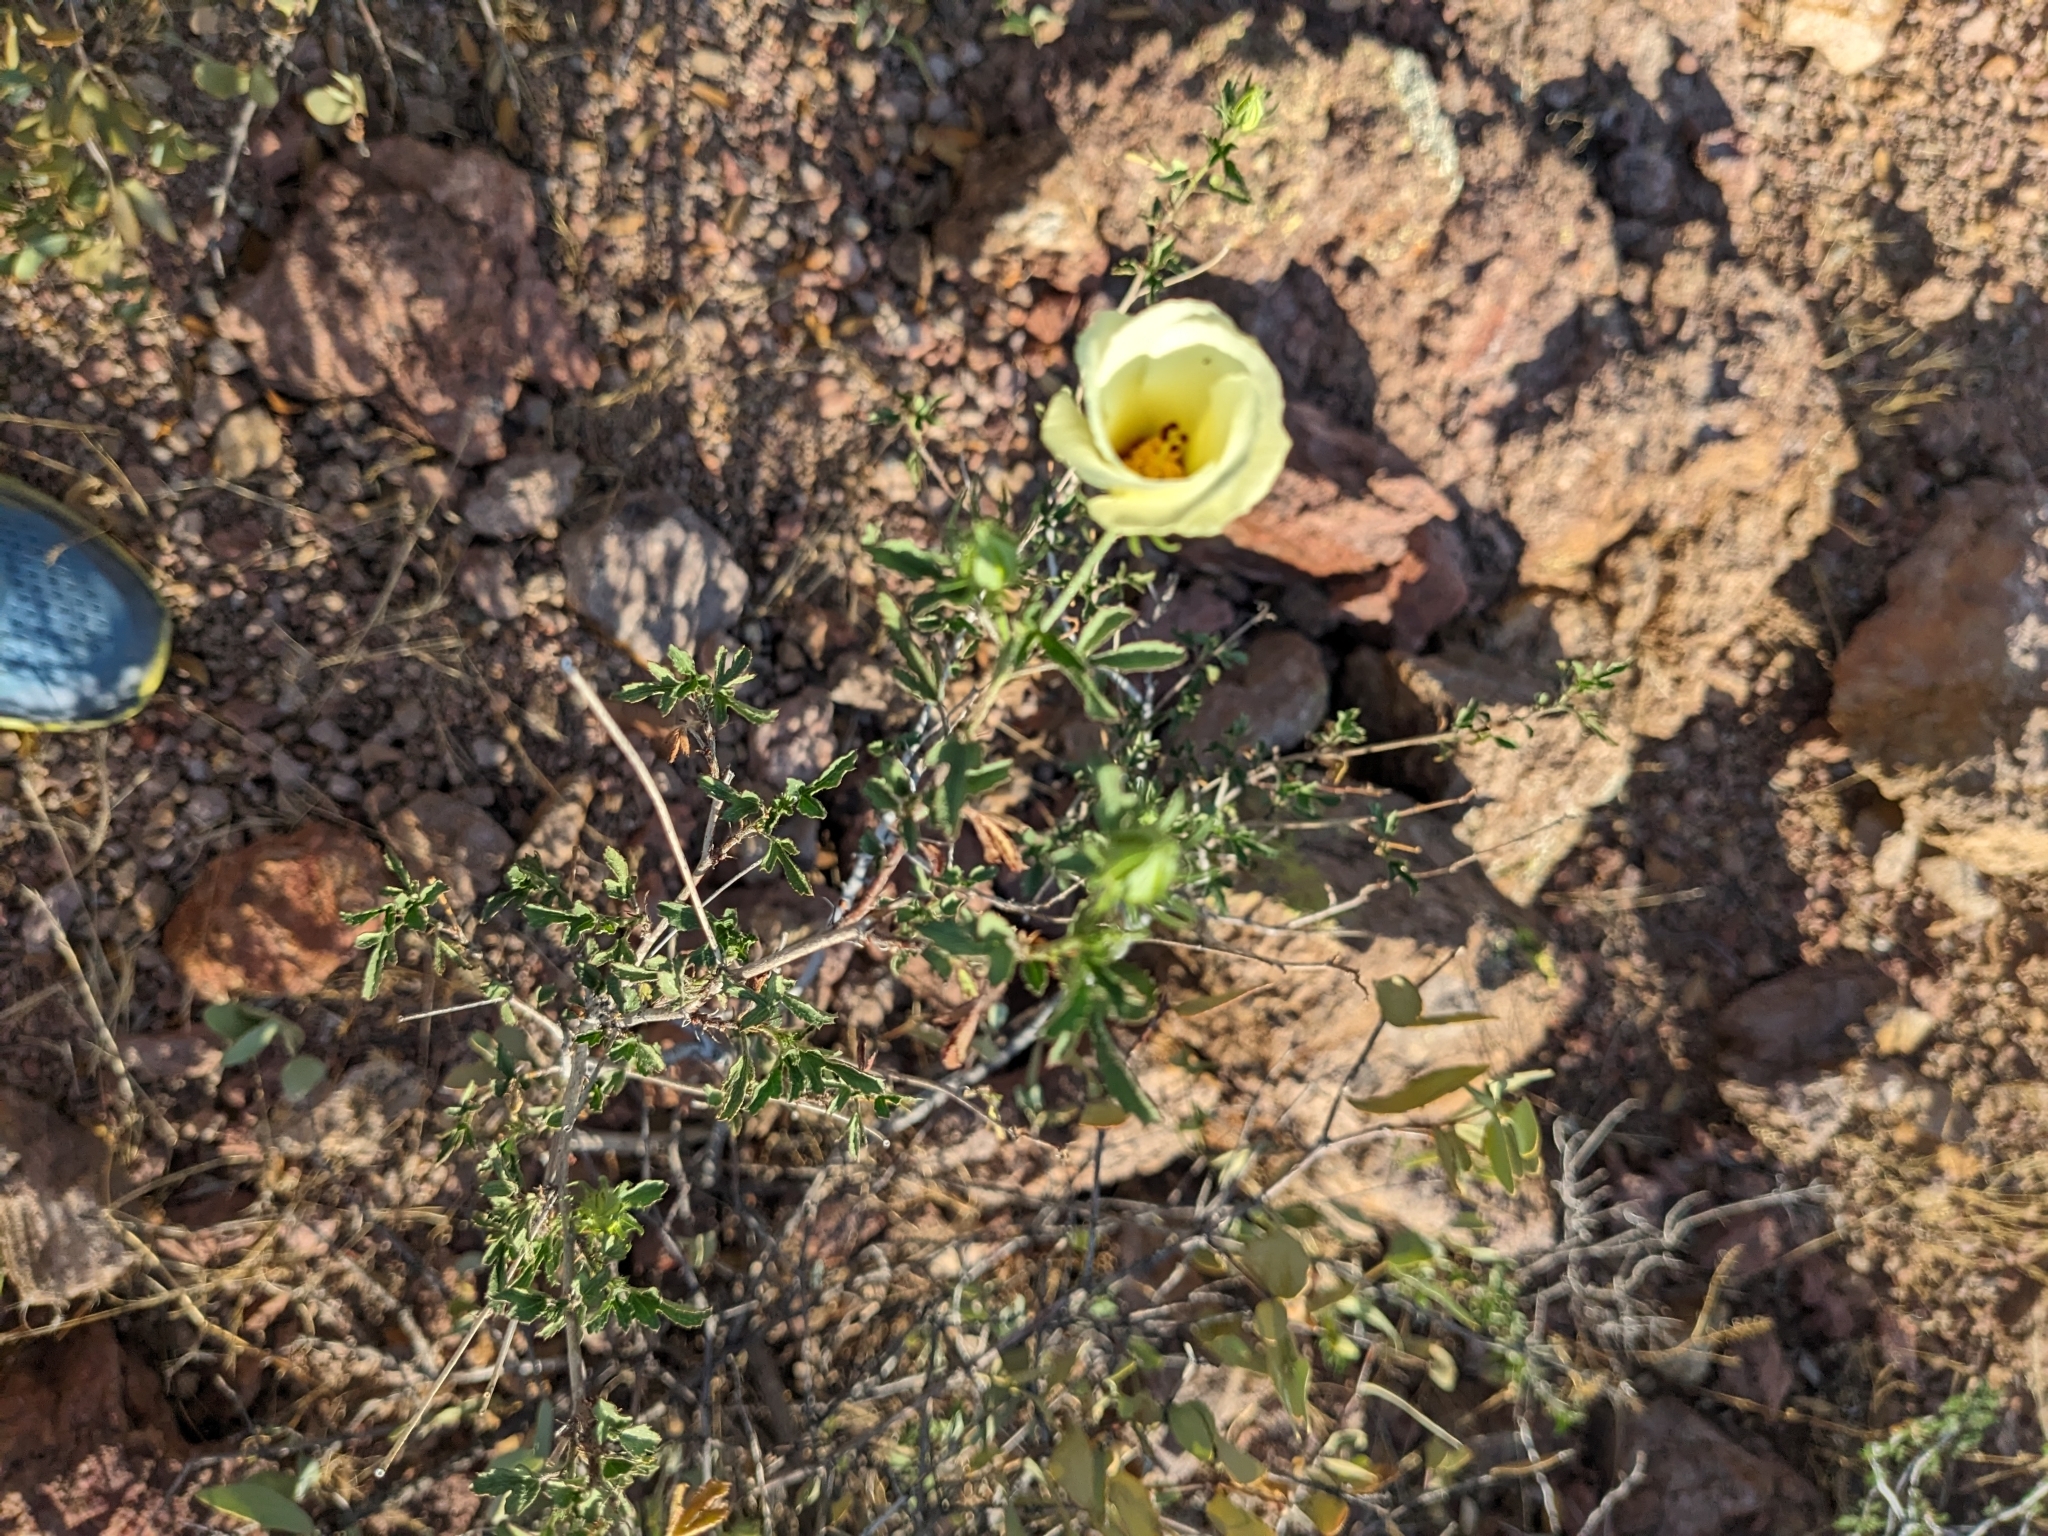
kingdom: Plantae
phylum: Tracheophyta
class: Magnoliopsida
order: Malvales
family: Malvaceae
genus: Hibiscus
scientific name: Hibiscus coulteri
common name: Desert rose-mallow
